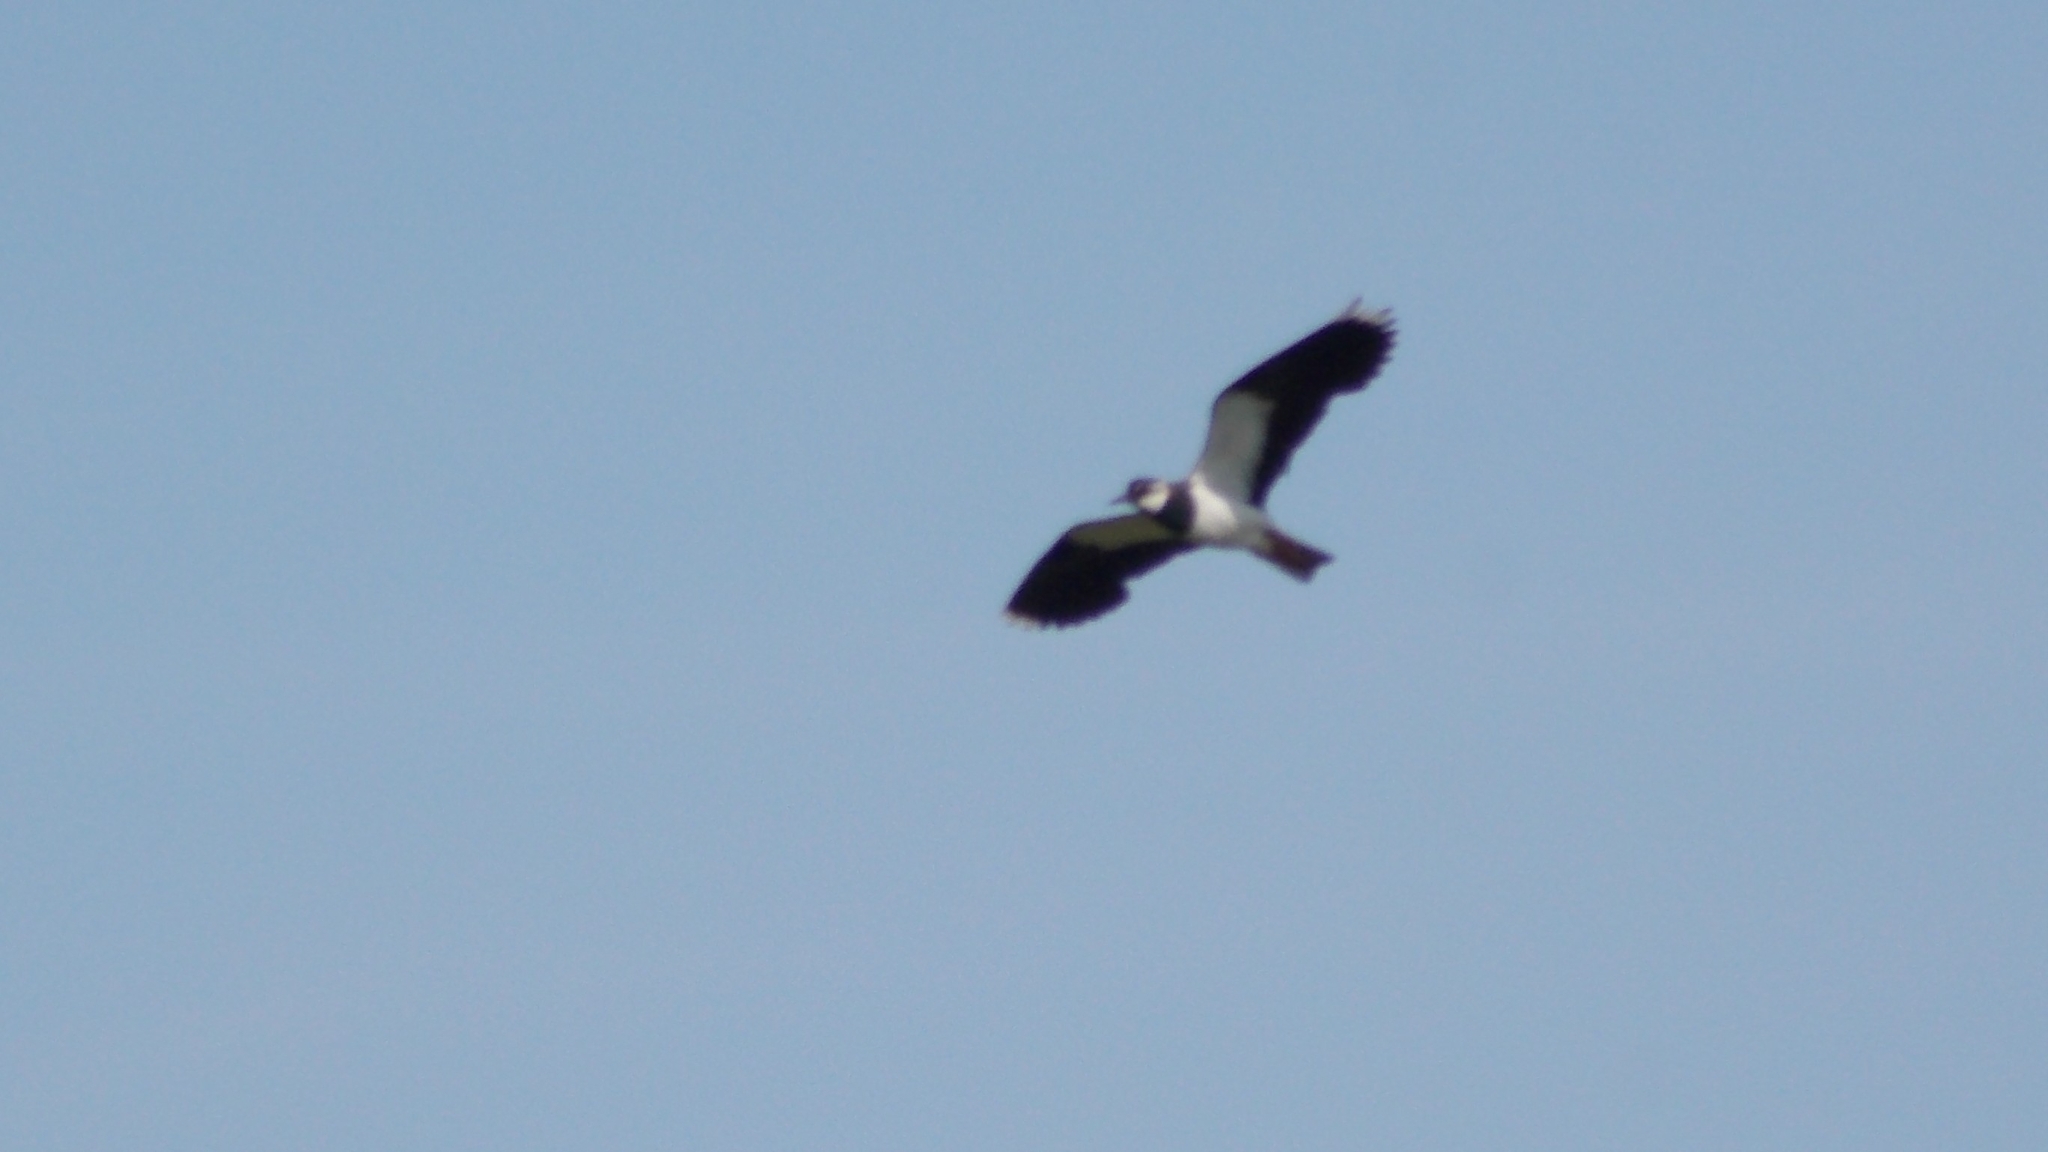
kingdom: Animalia
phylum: Chordata
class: Aves
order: Charadriiformes
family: Charadriidae
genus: Vanellus
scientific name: Vanellus vanellus
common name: Northern lapwing
